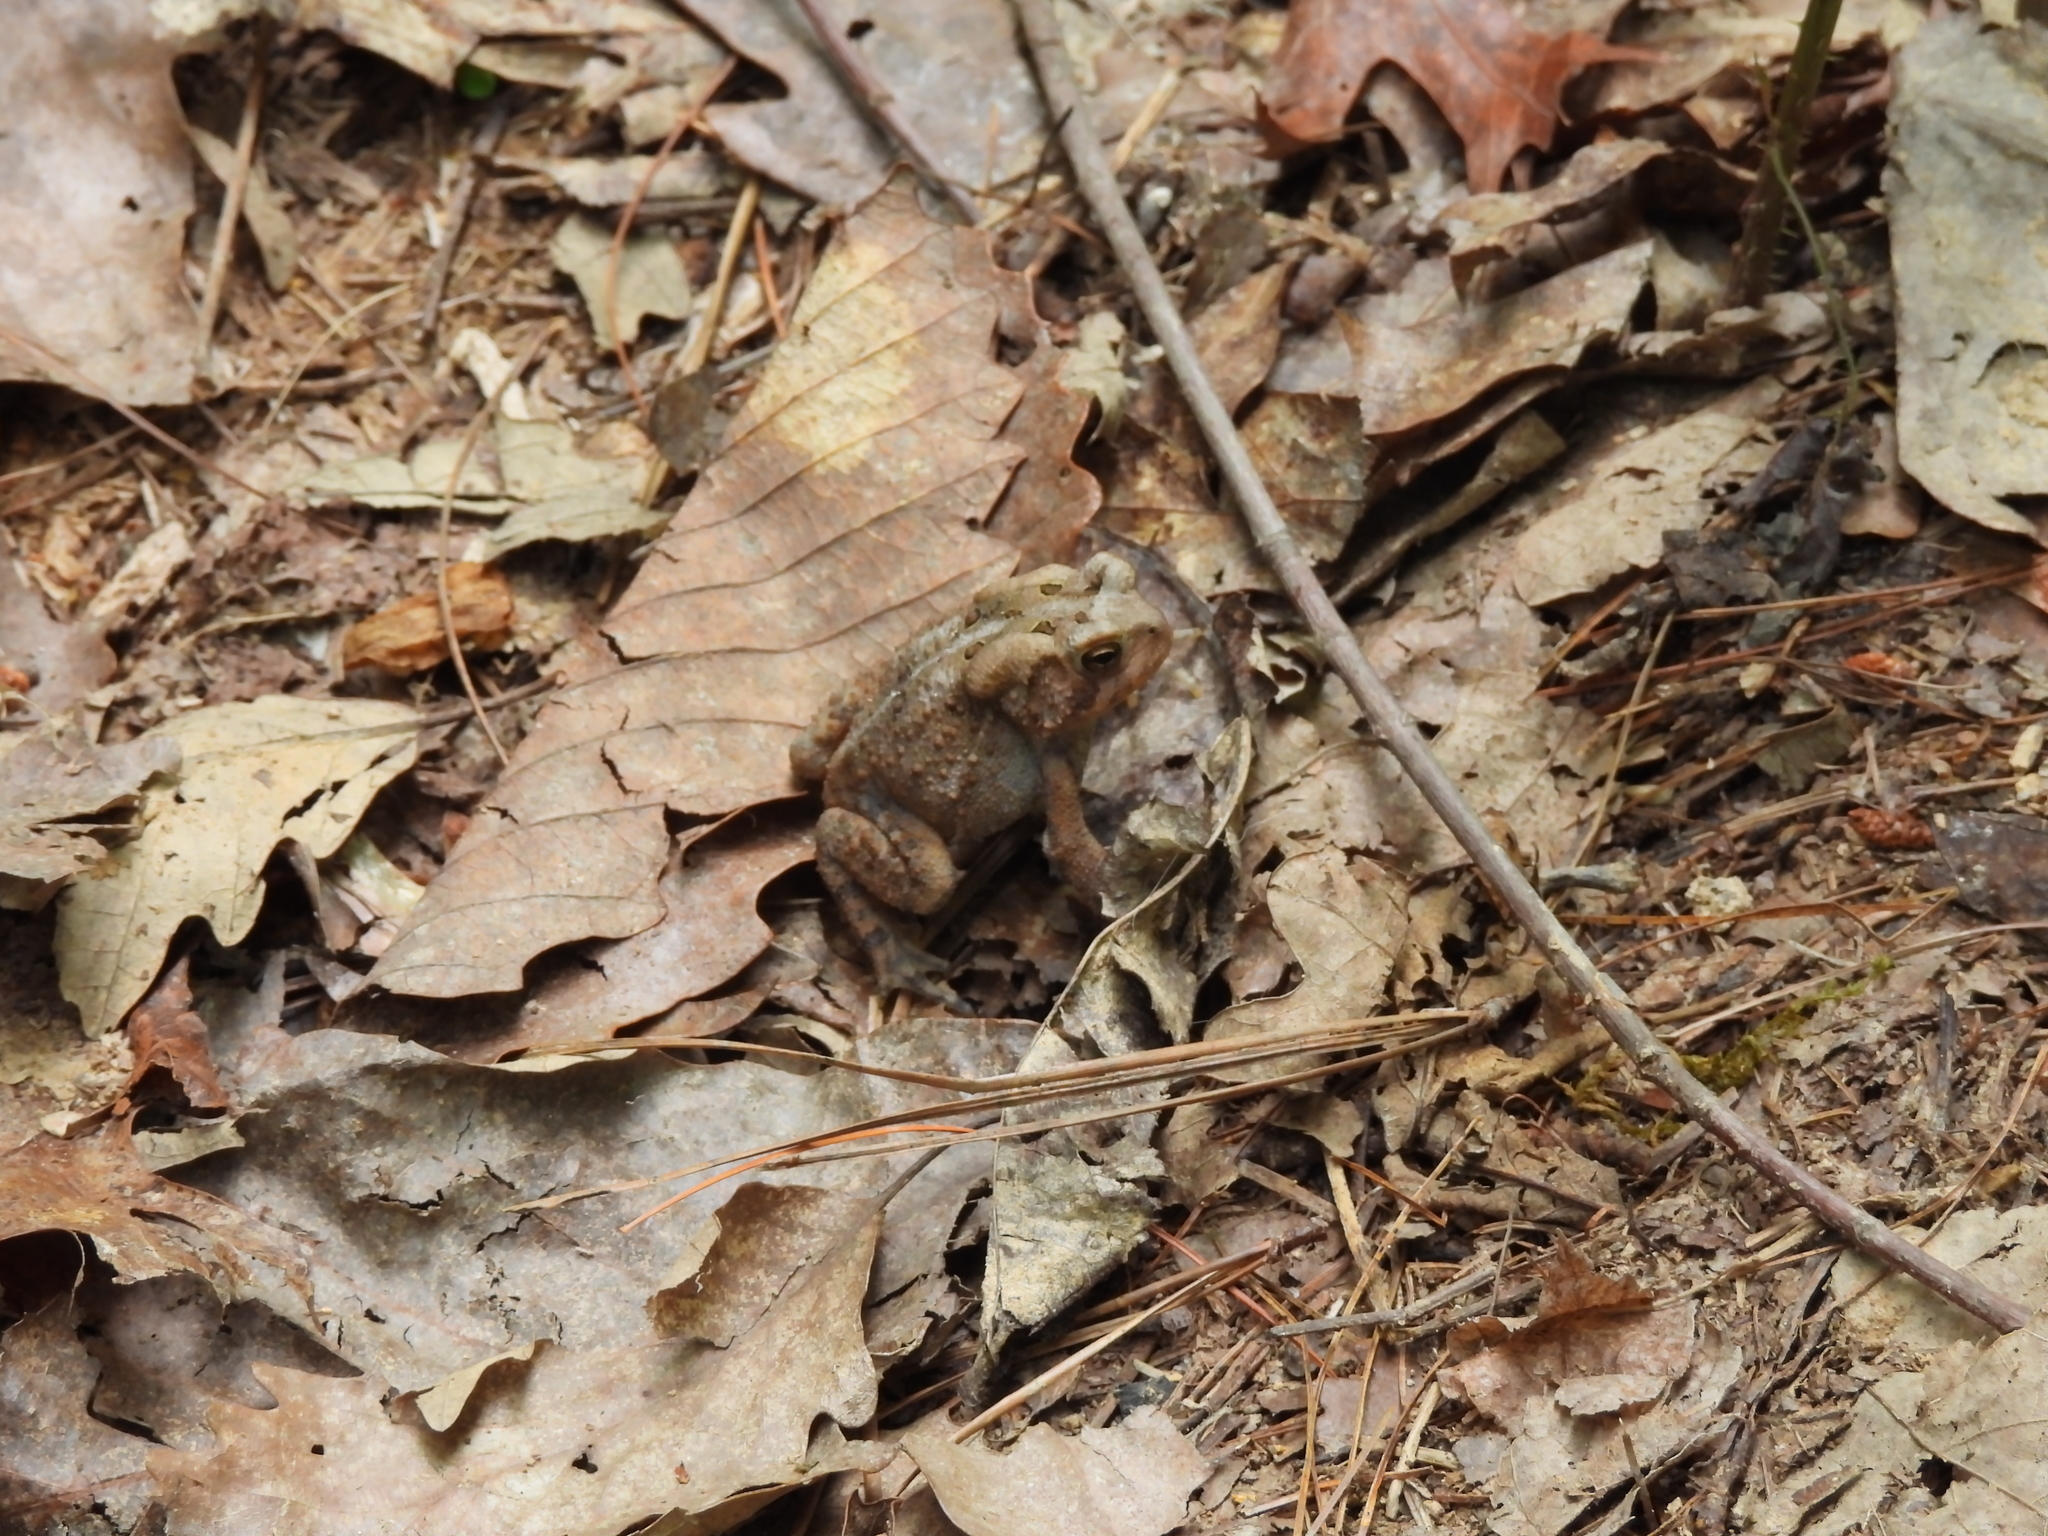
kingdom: Animalia
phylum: Chordata
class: Amphibia
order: Anura
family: Bufonidae
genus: Anaxyrus
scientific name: Anaxyrus americanus
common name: American toad
